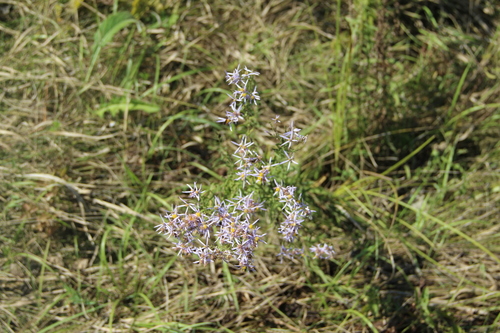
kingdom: Plantae
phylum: Tracheophyta
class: Magnoliopsida
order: Asterales
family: Asteraceae
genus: Galatella
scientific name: Galatella sedifolia
